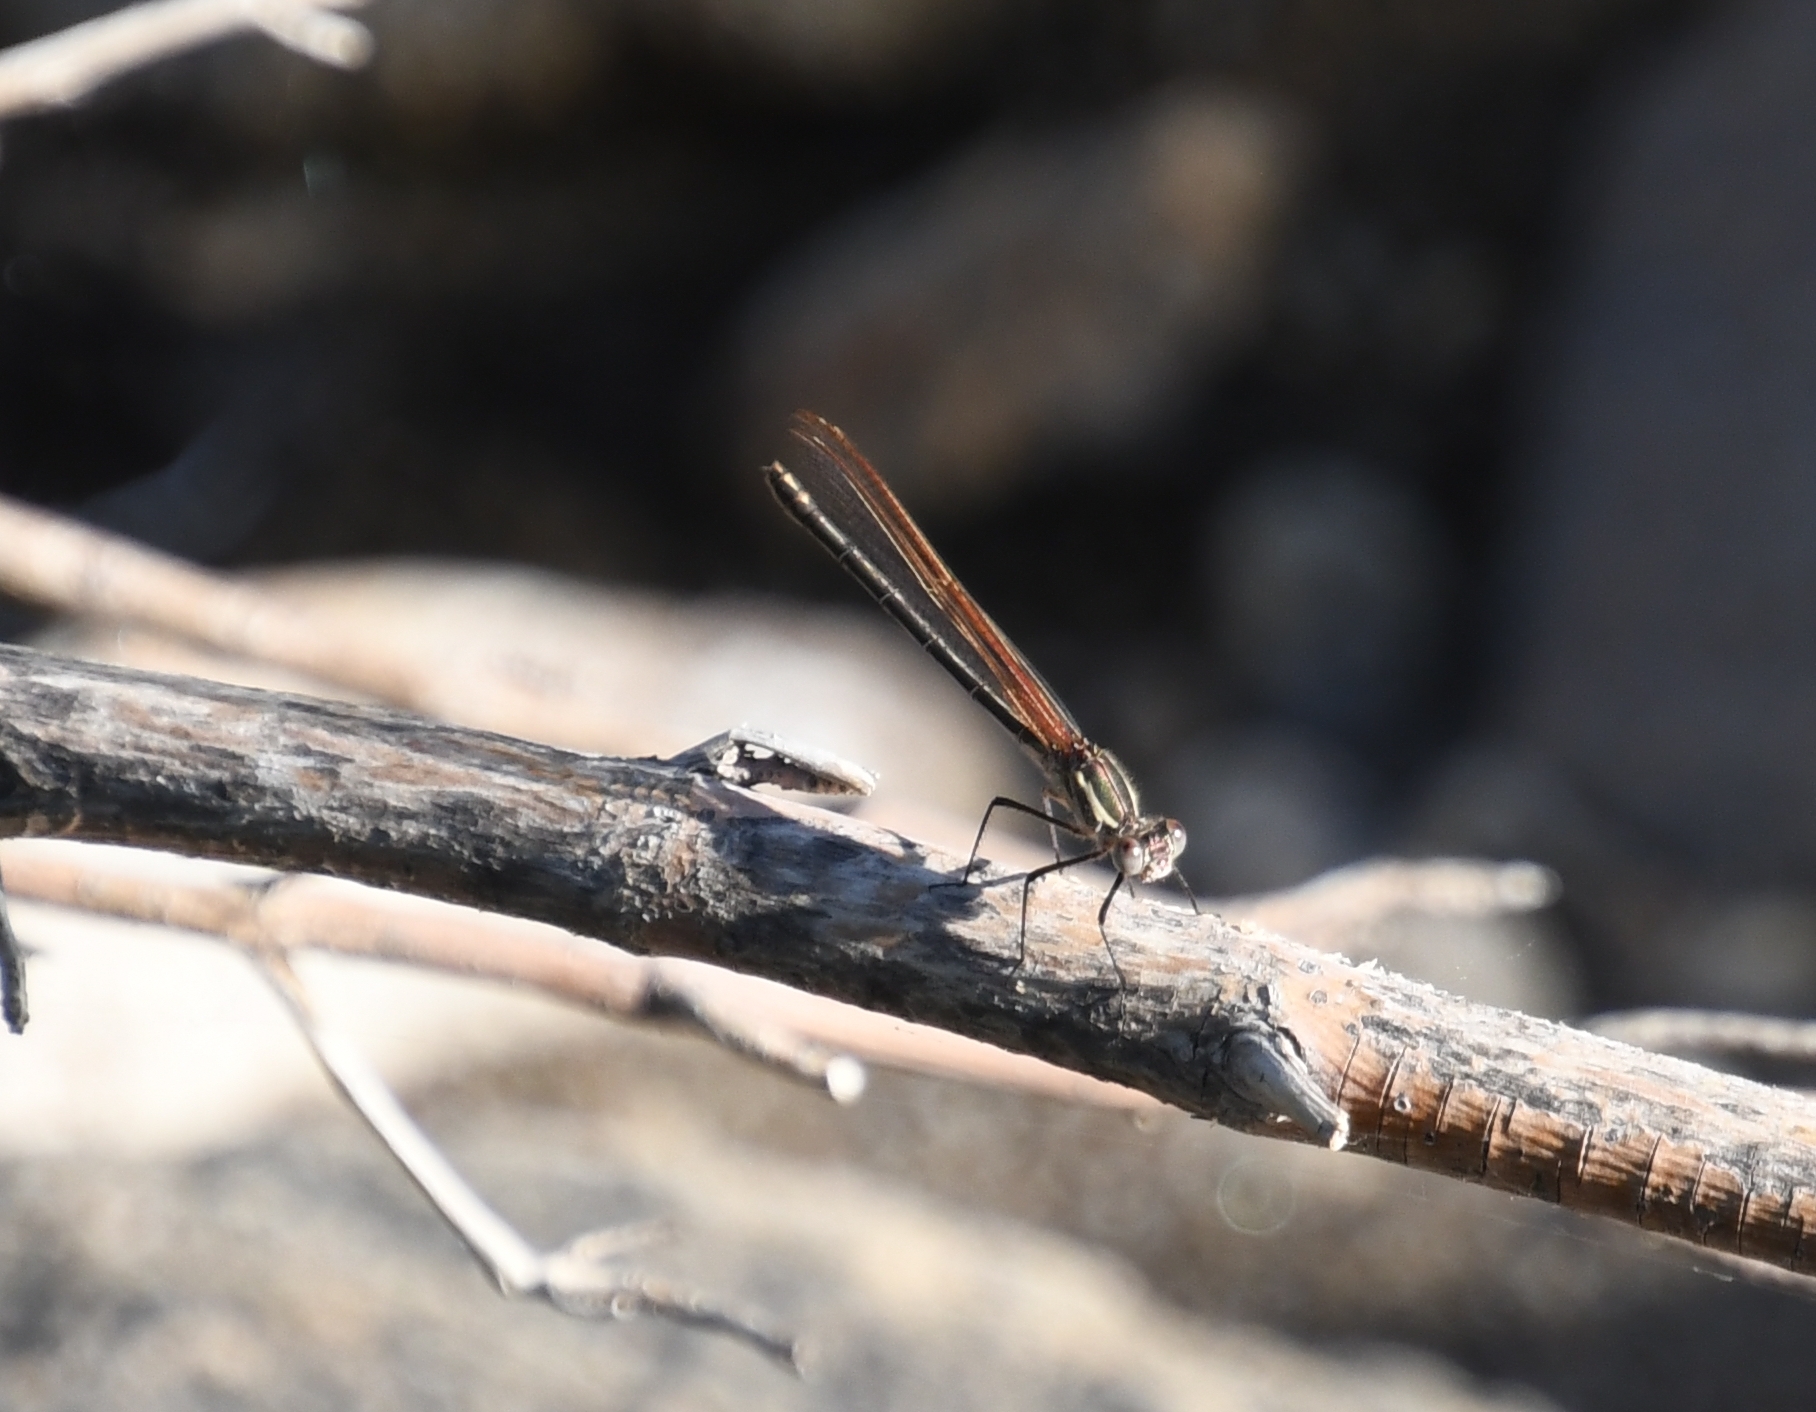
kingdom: Animalia
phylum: Arthropoda
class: Insecta
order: Odonata
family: Calopterygidae
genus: Hetaerina
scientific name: Hetaerina americana
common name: American rubyspot
